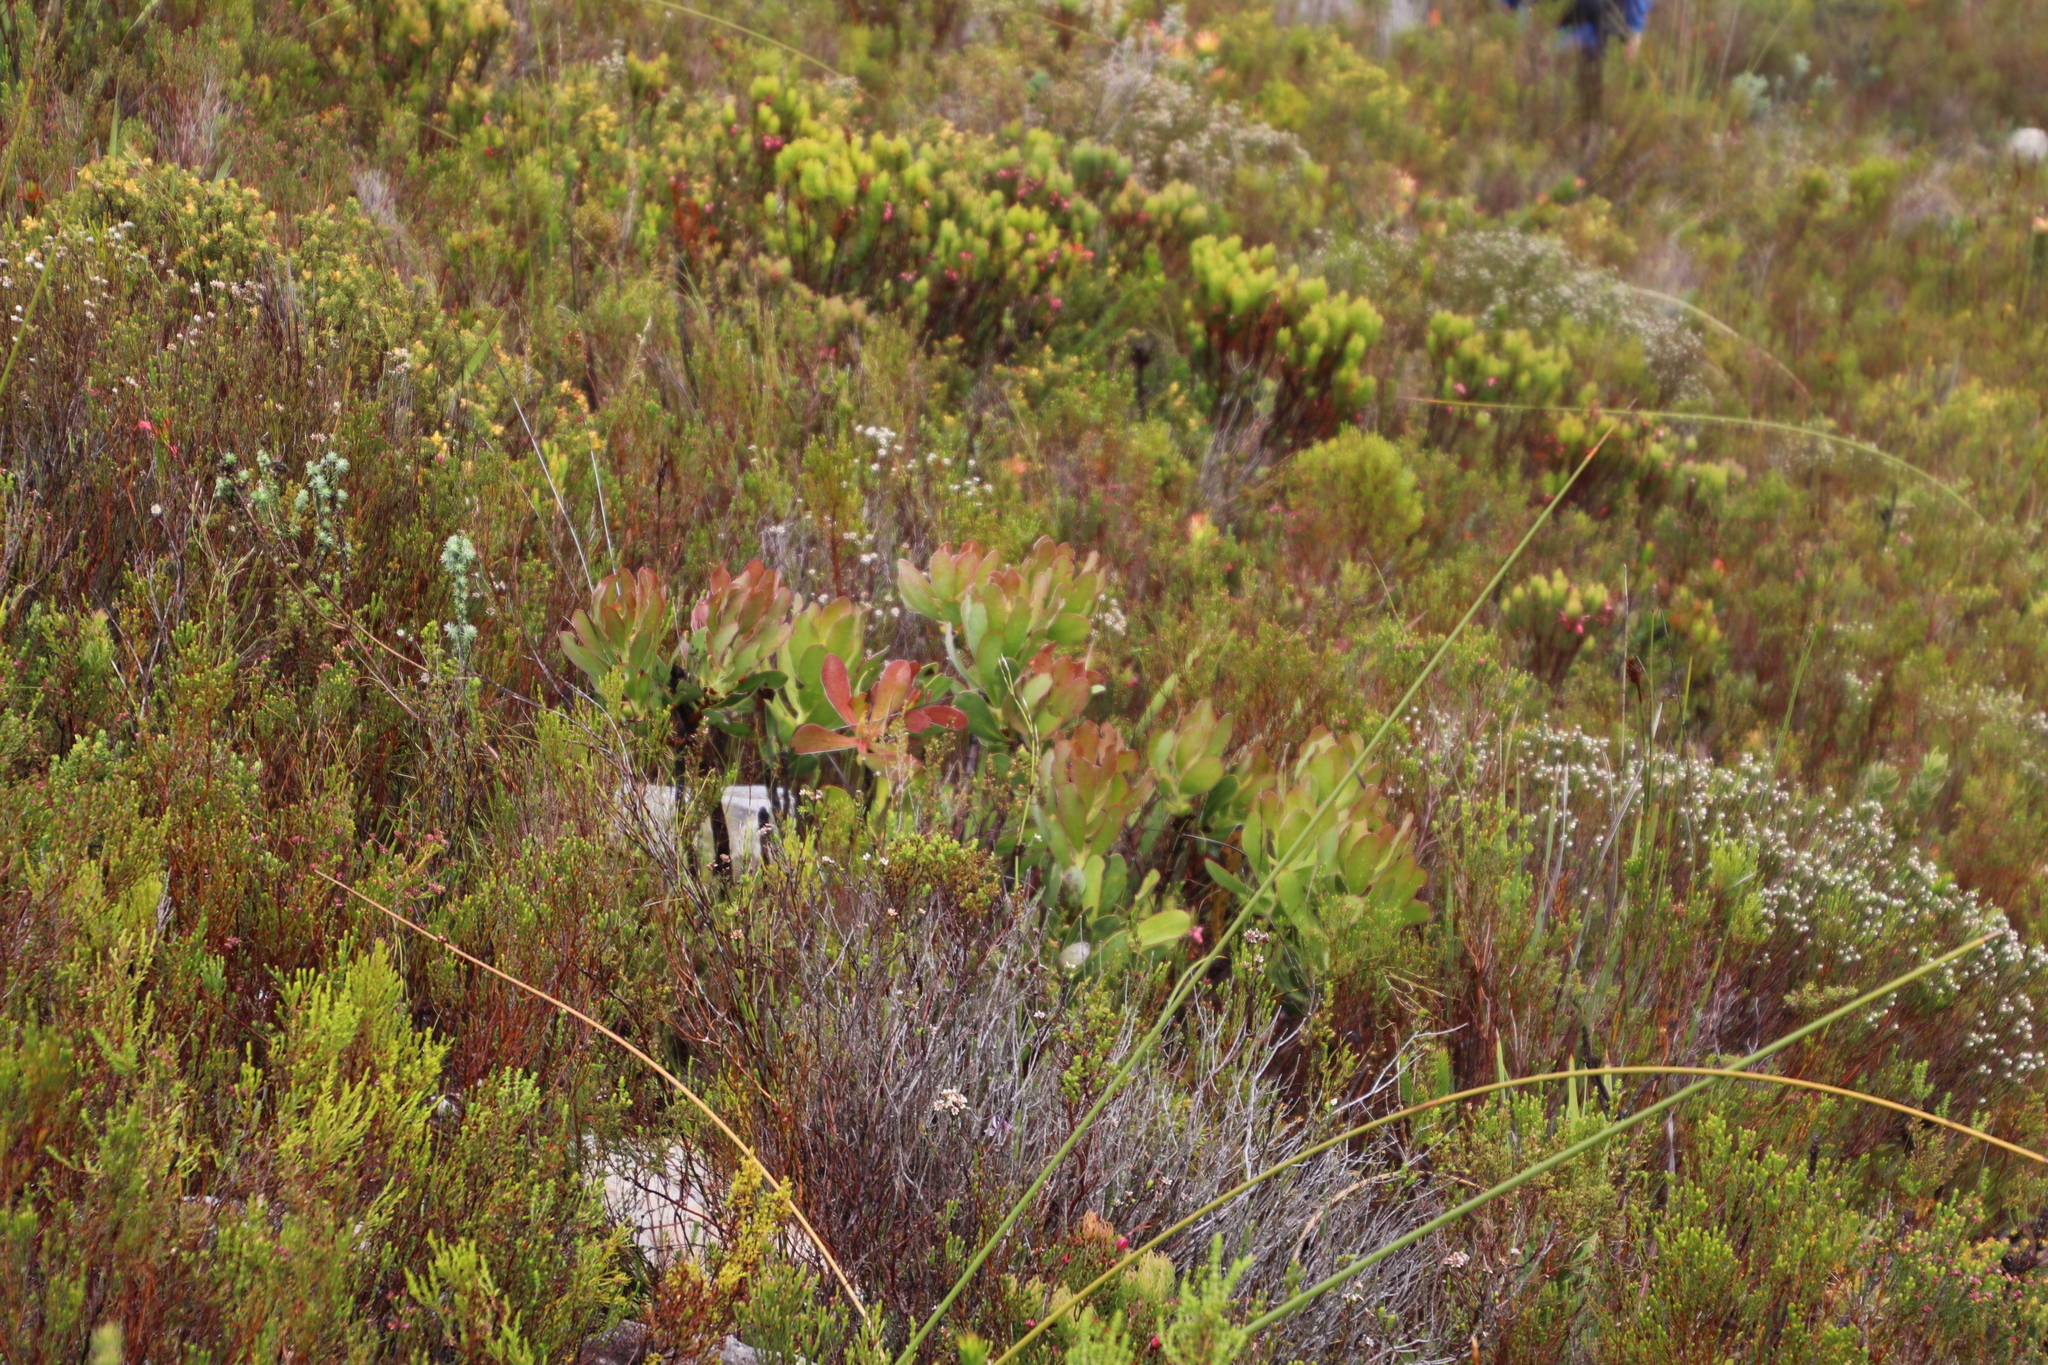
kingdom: Plantae
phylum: Tracheophyta
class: Magnoliopsida
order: Proteales
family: Proteaceae
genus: Protea
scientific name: Protea speciosa
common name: Brown-beard sugarbush
